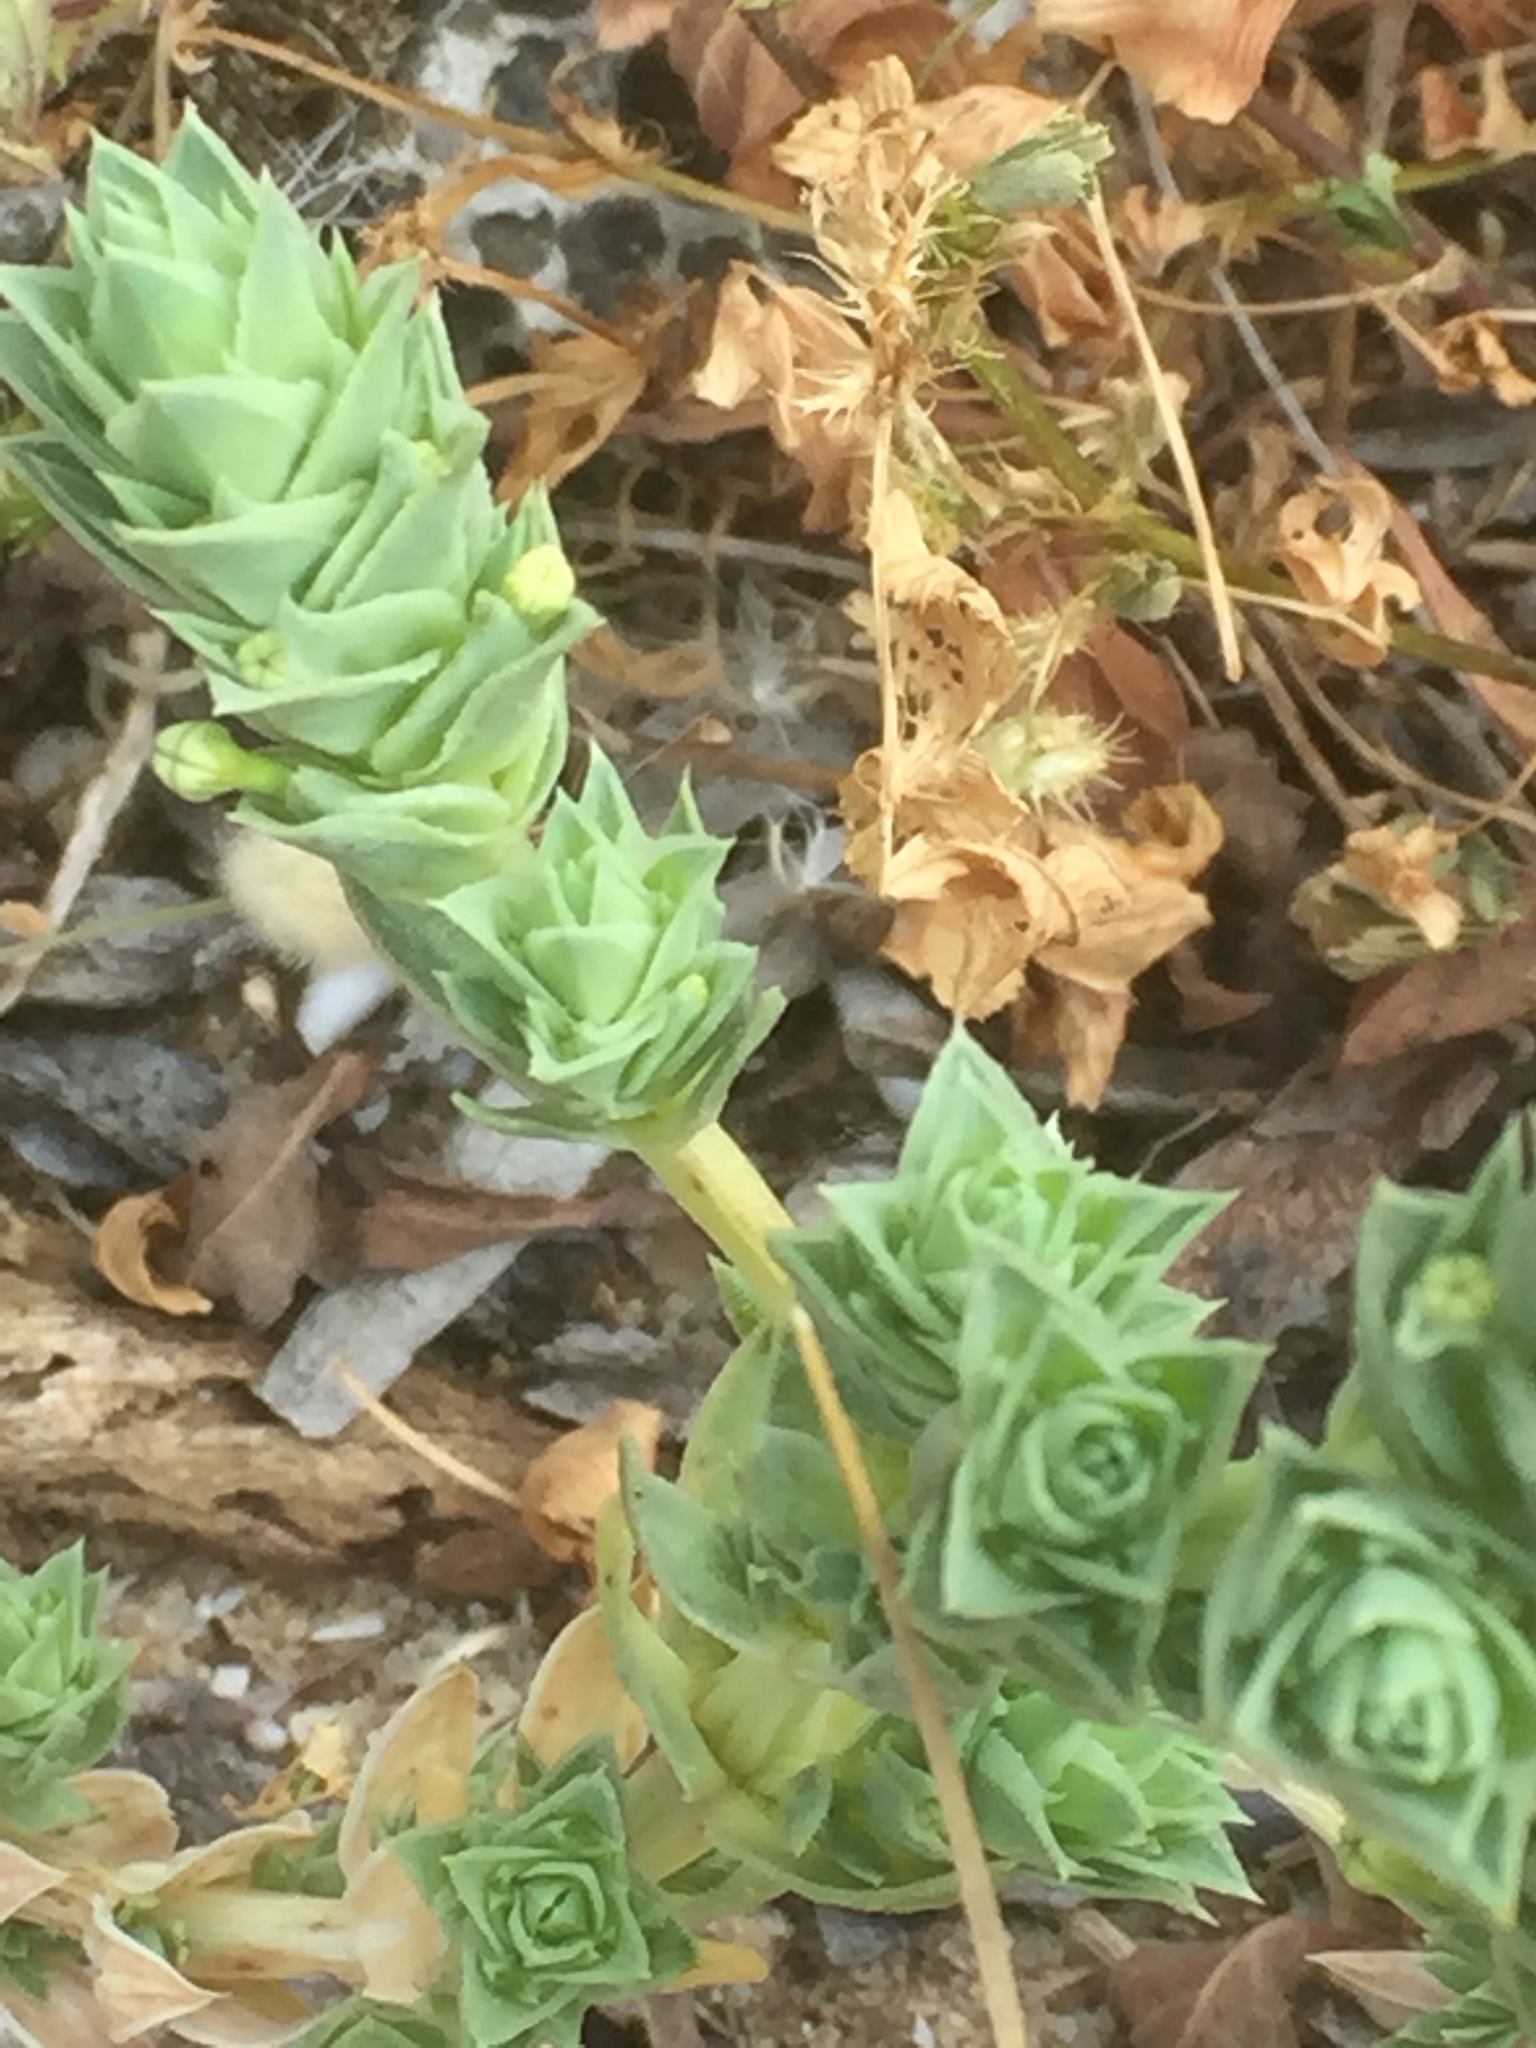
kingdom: Plantae
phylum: Tracheophyta
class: Magnoliopsida
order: Gentianales
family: Rubiaceae
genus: Crucianella
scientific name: Crucianella maritima
